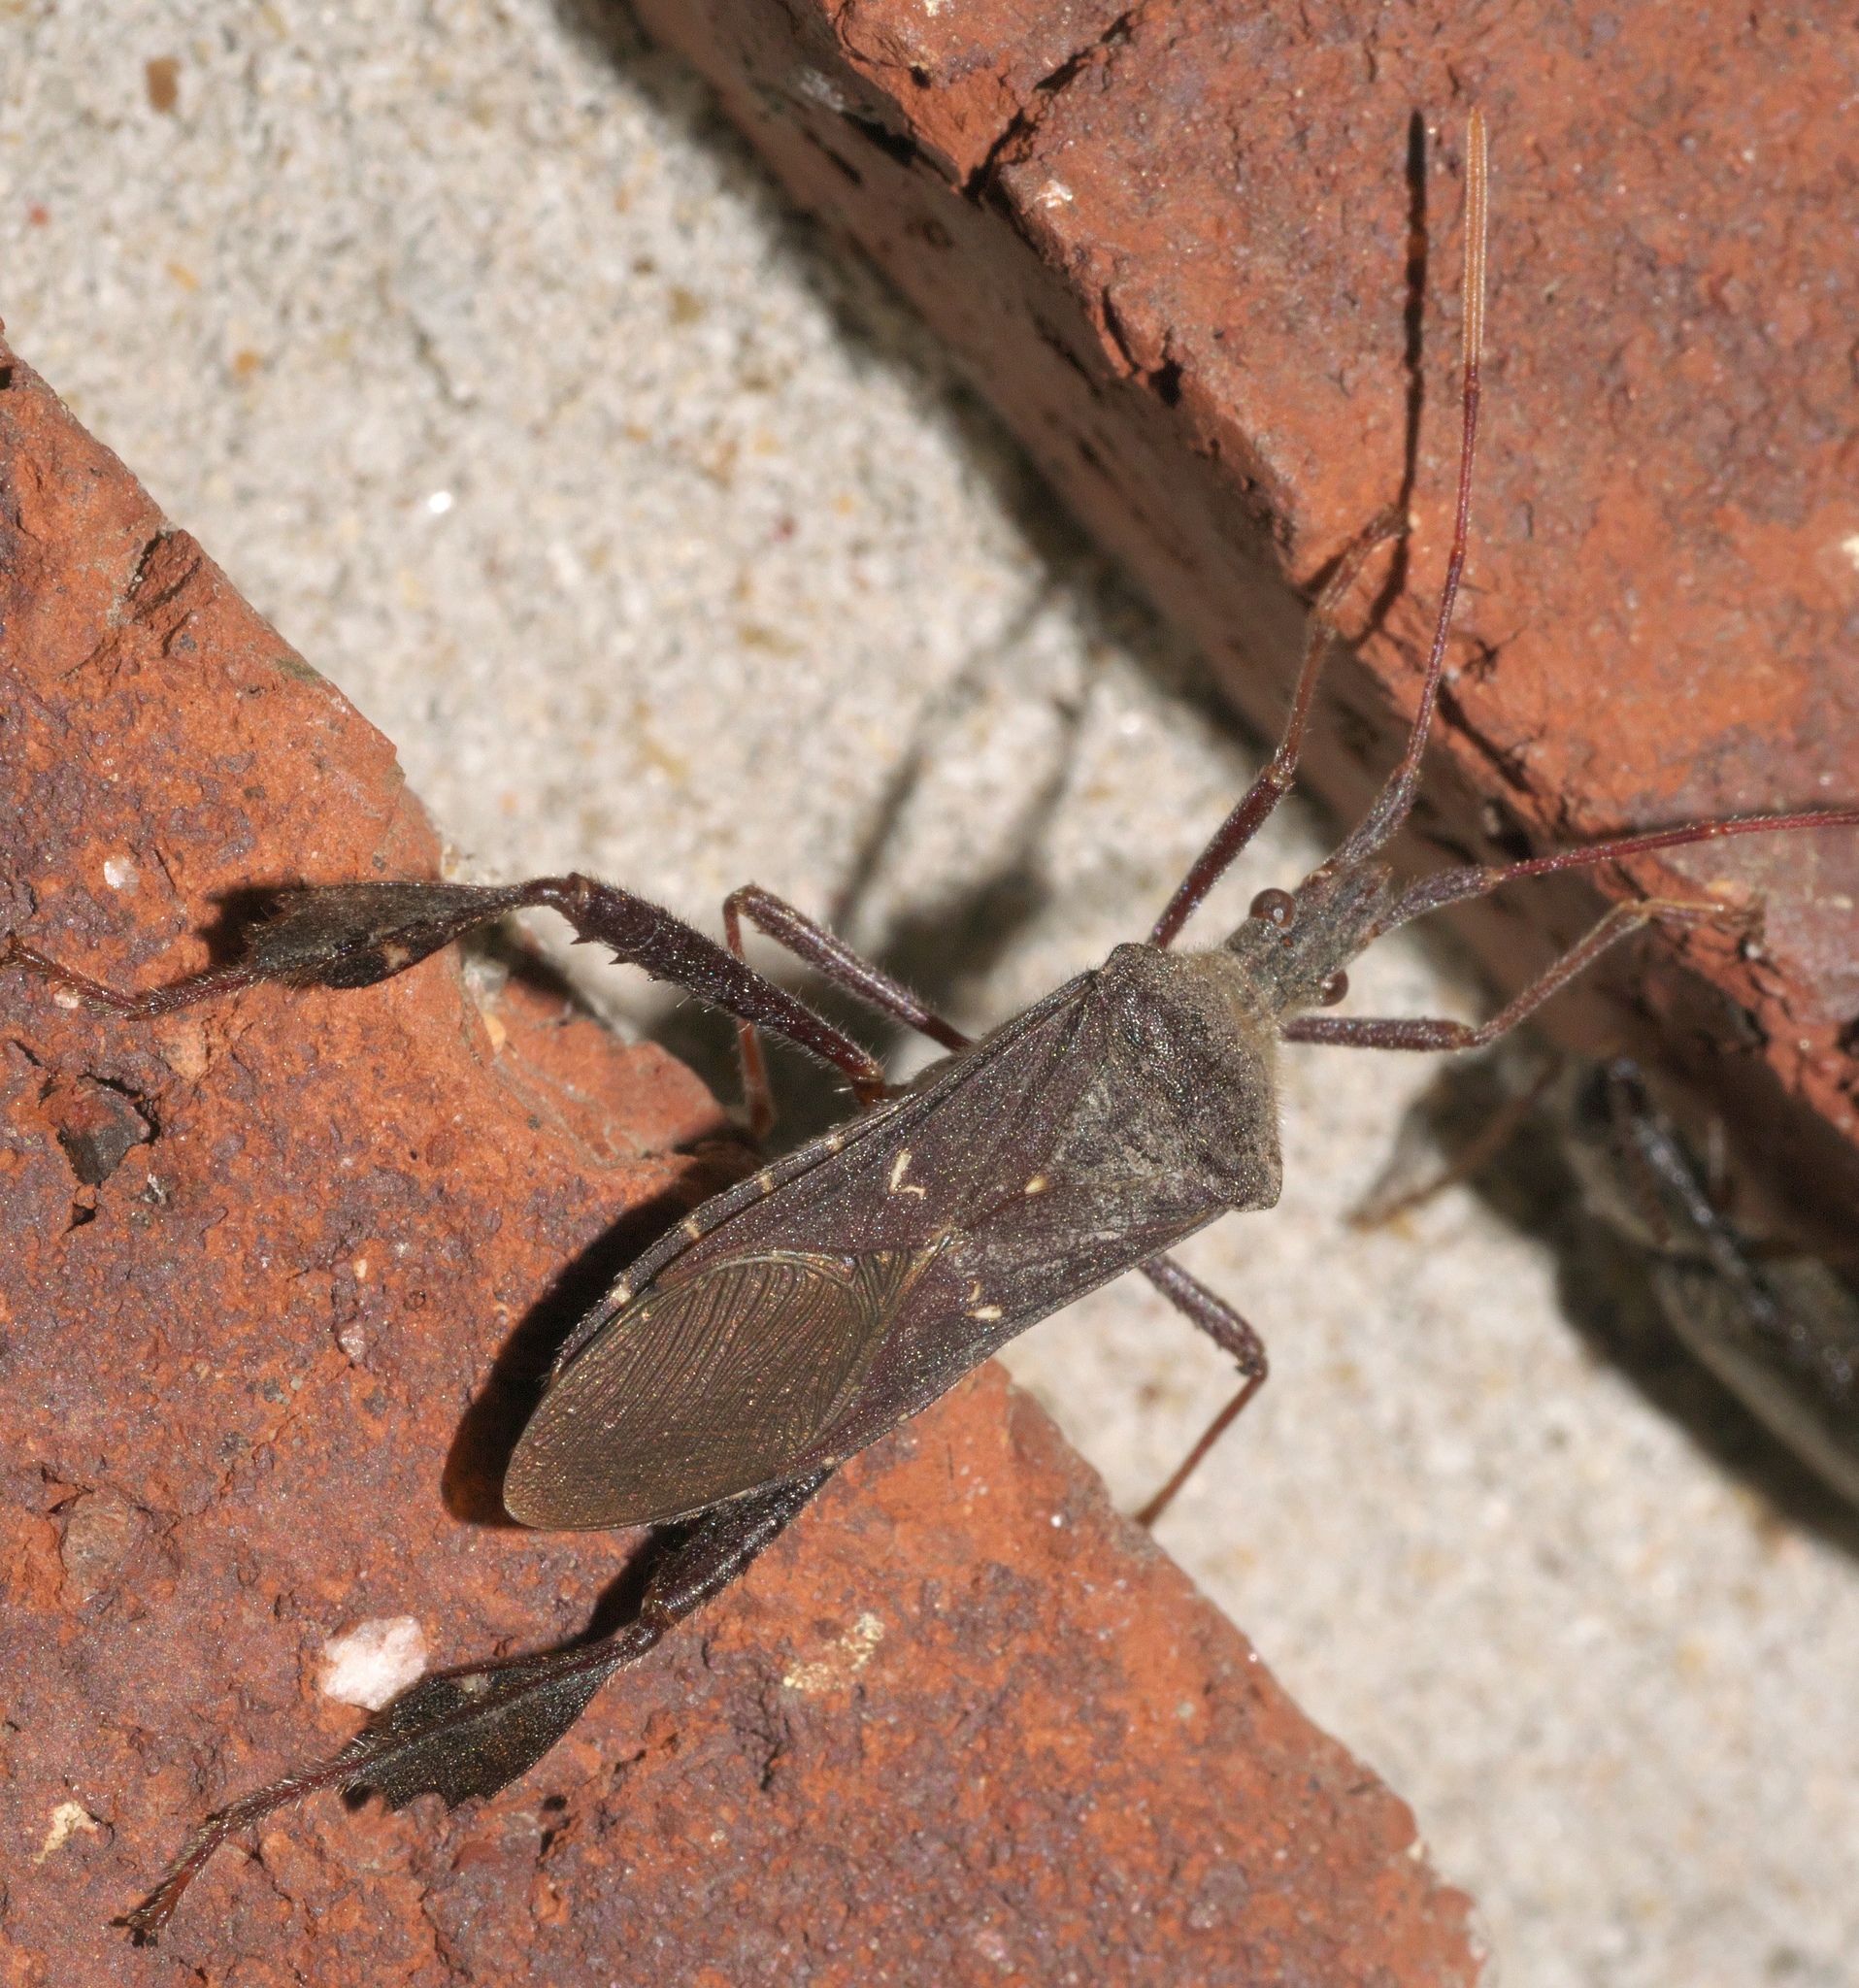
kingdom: Animalia
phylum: Arthropoda
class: Insecta
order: Hemiptera
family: Coreidae
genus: Leptoglossus
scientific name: Leptoglossus oppositus
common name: Northern leaf-footed bug
